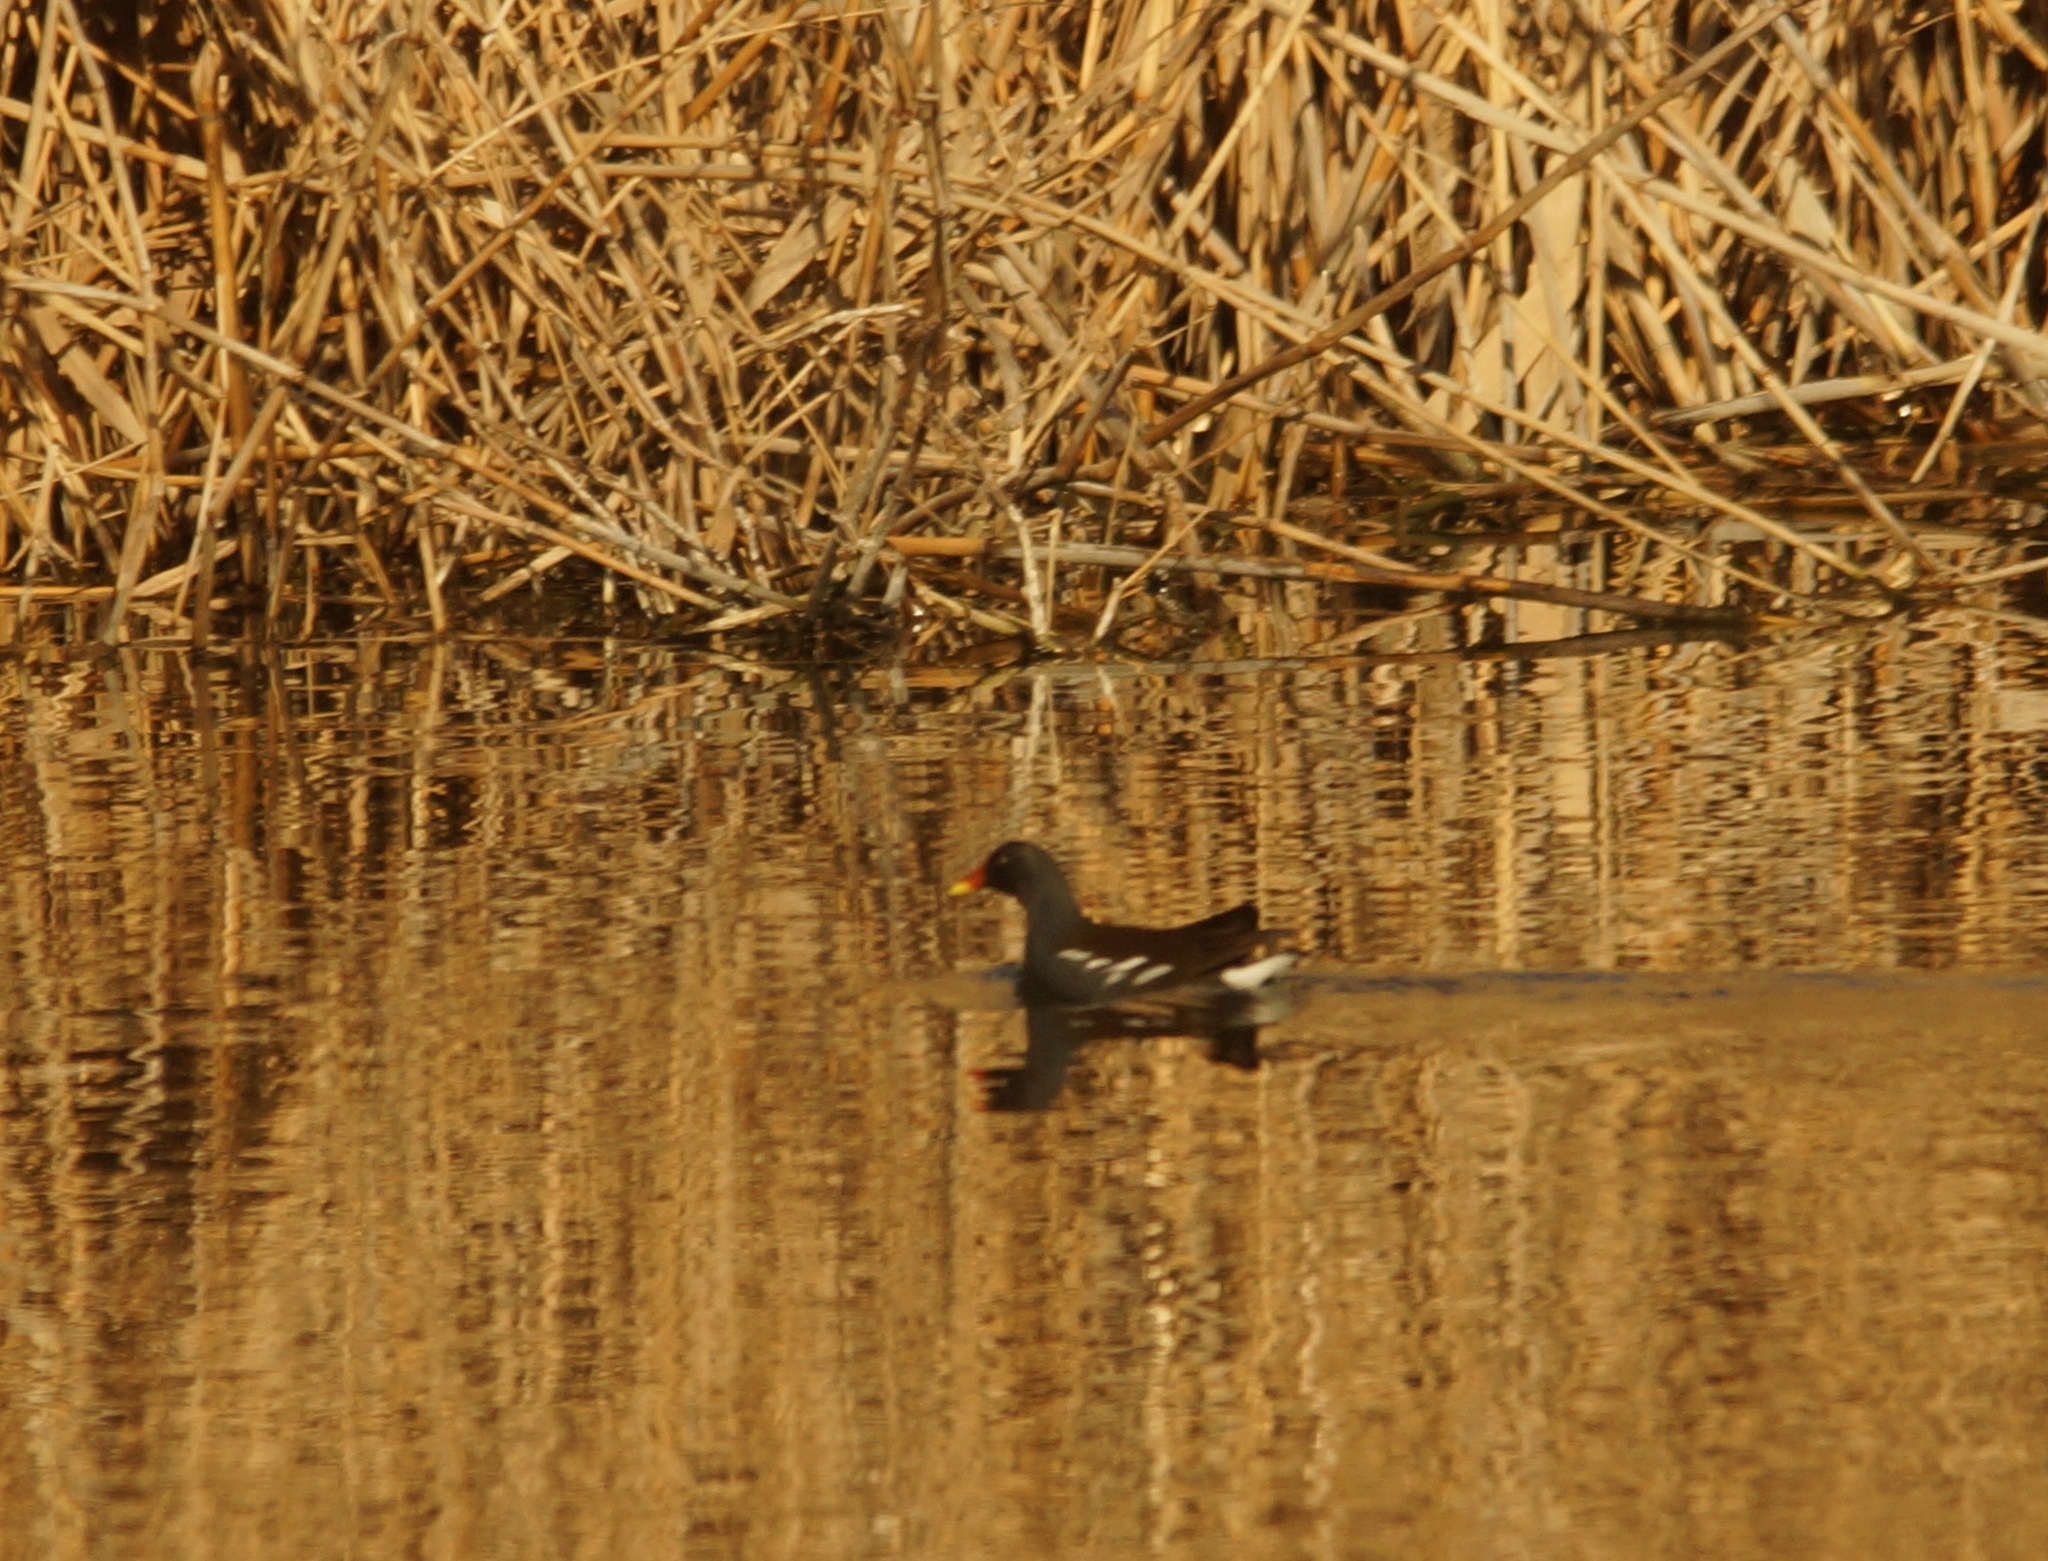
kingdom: Animalia
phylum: Chordata
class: Aves
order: Gruiformes
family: Rallidae
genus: Gallinula
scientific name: Gallinula chloropus
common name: Common moorhen
